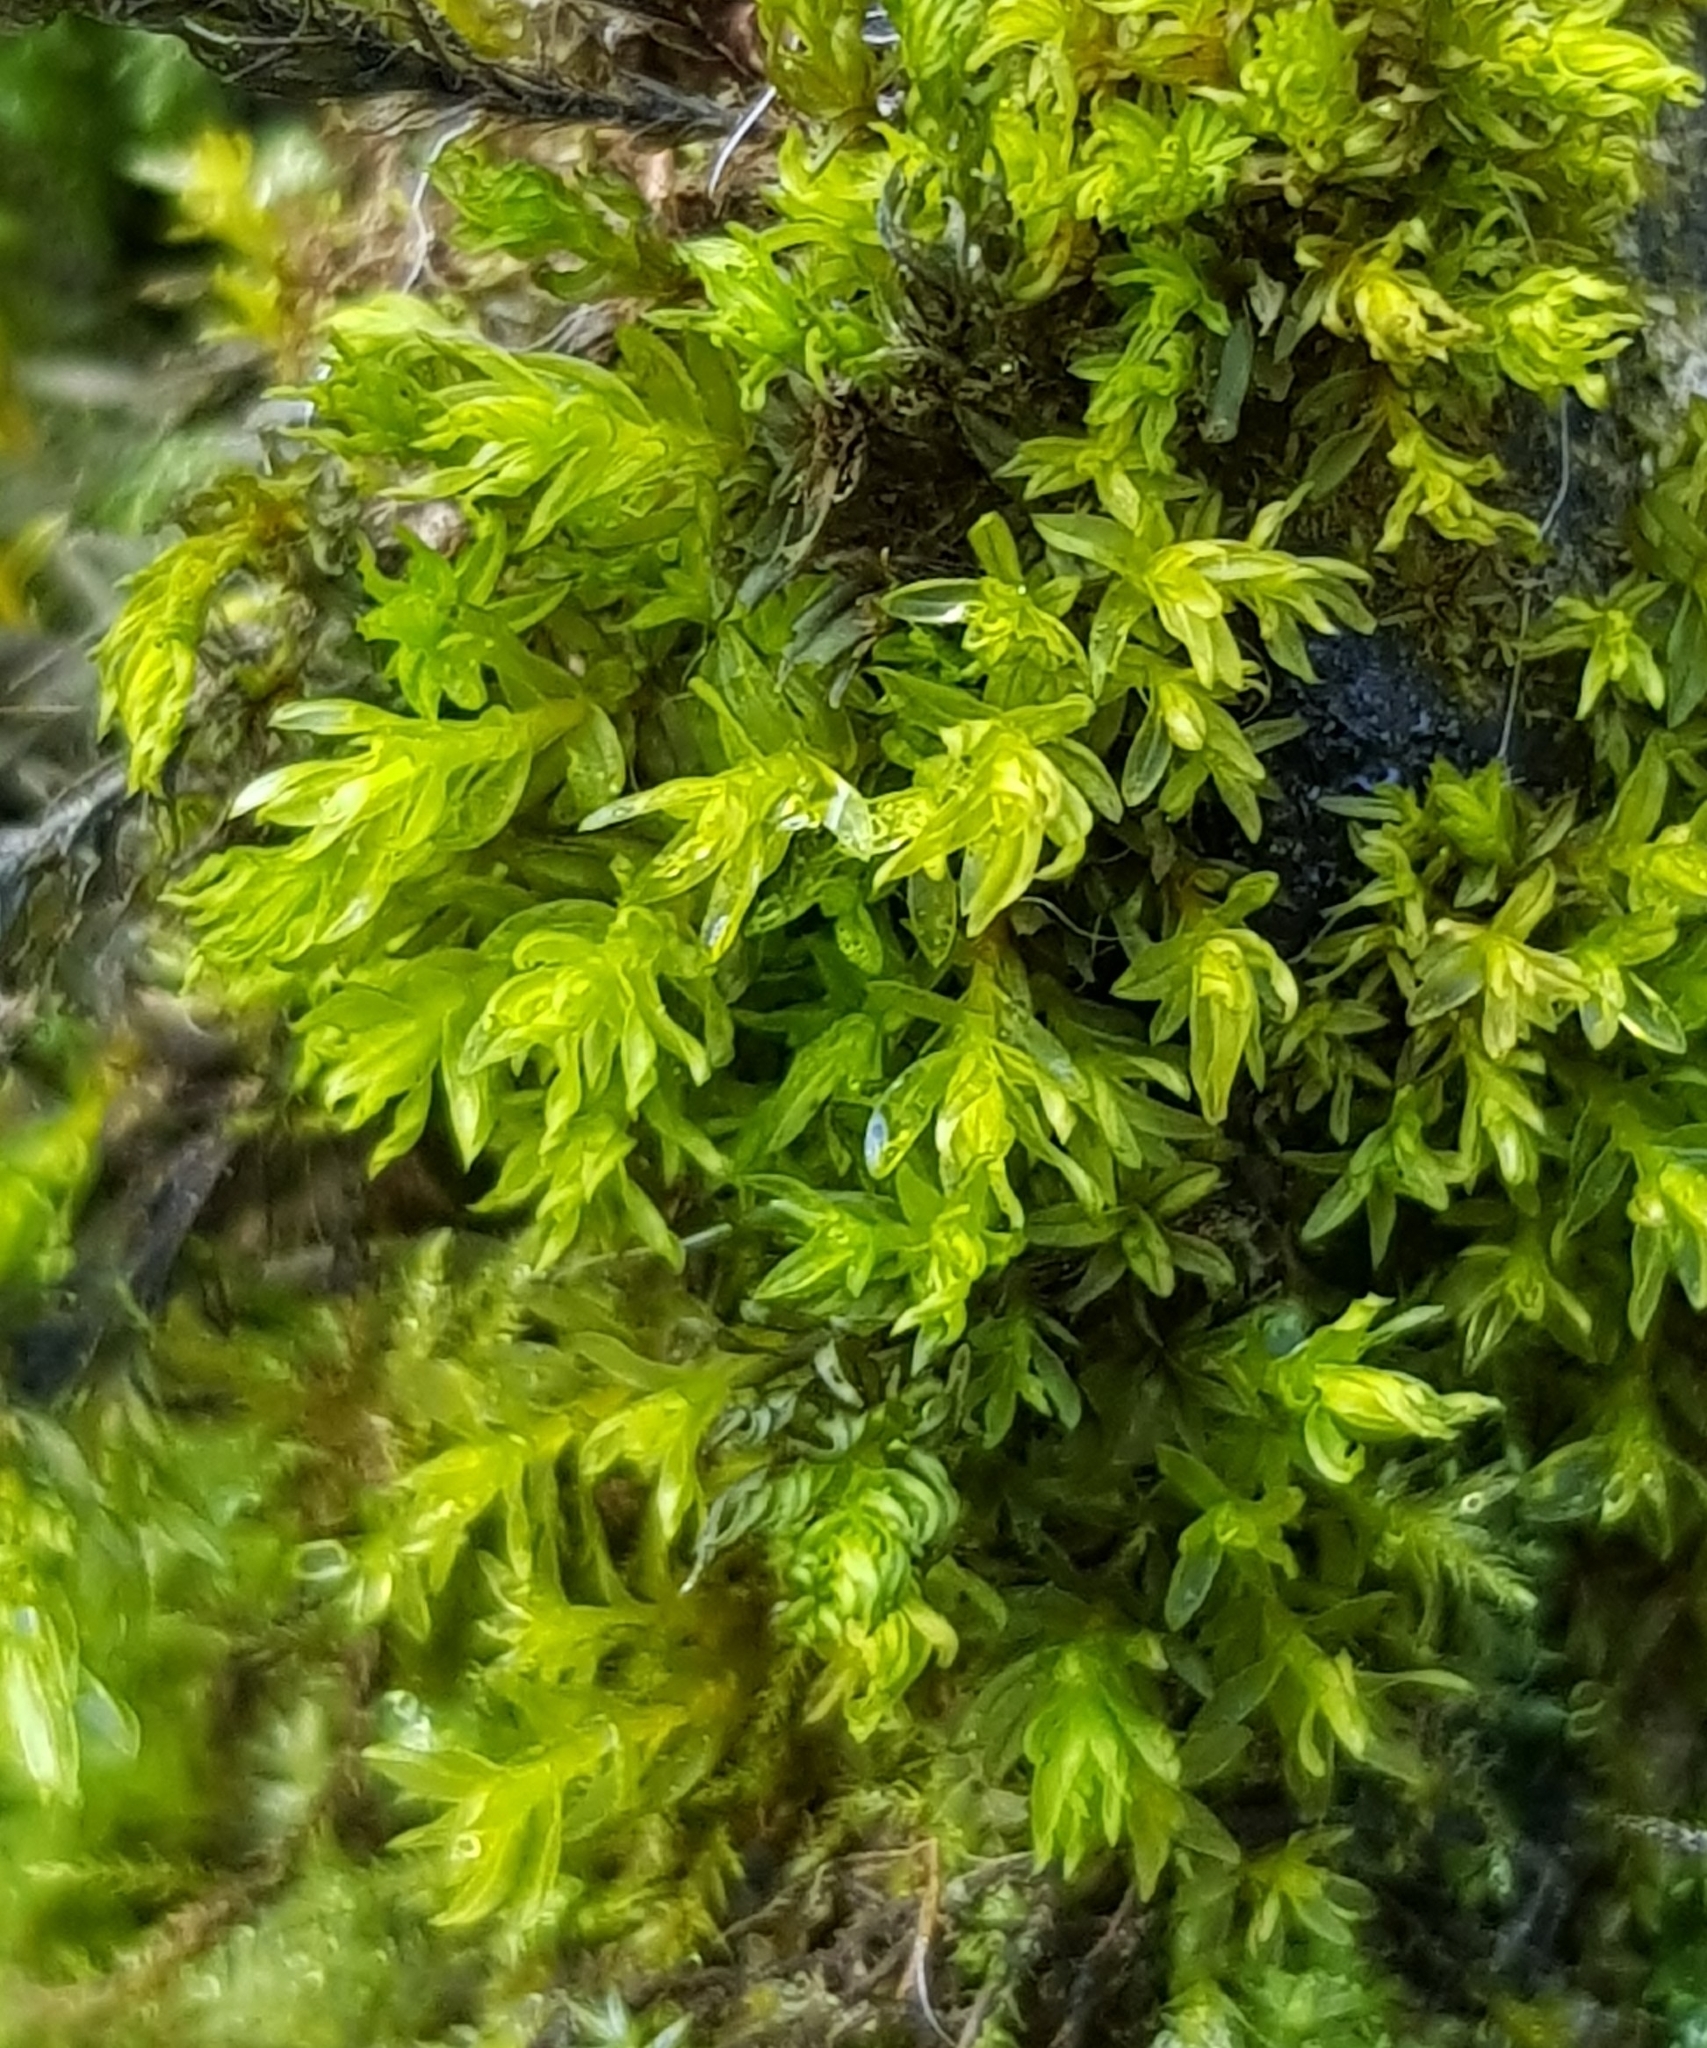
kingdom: Plantae
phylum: Bryophyta
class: Bryopsida
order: Pottiales
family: Pottiaceae
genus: Cinclidotus
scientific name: Cinclidotus fontinaloides
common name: Smaller lattice-moss
